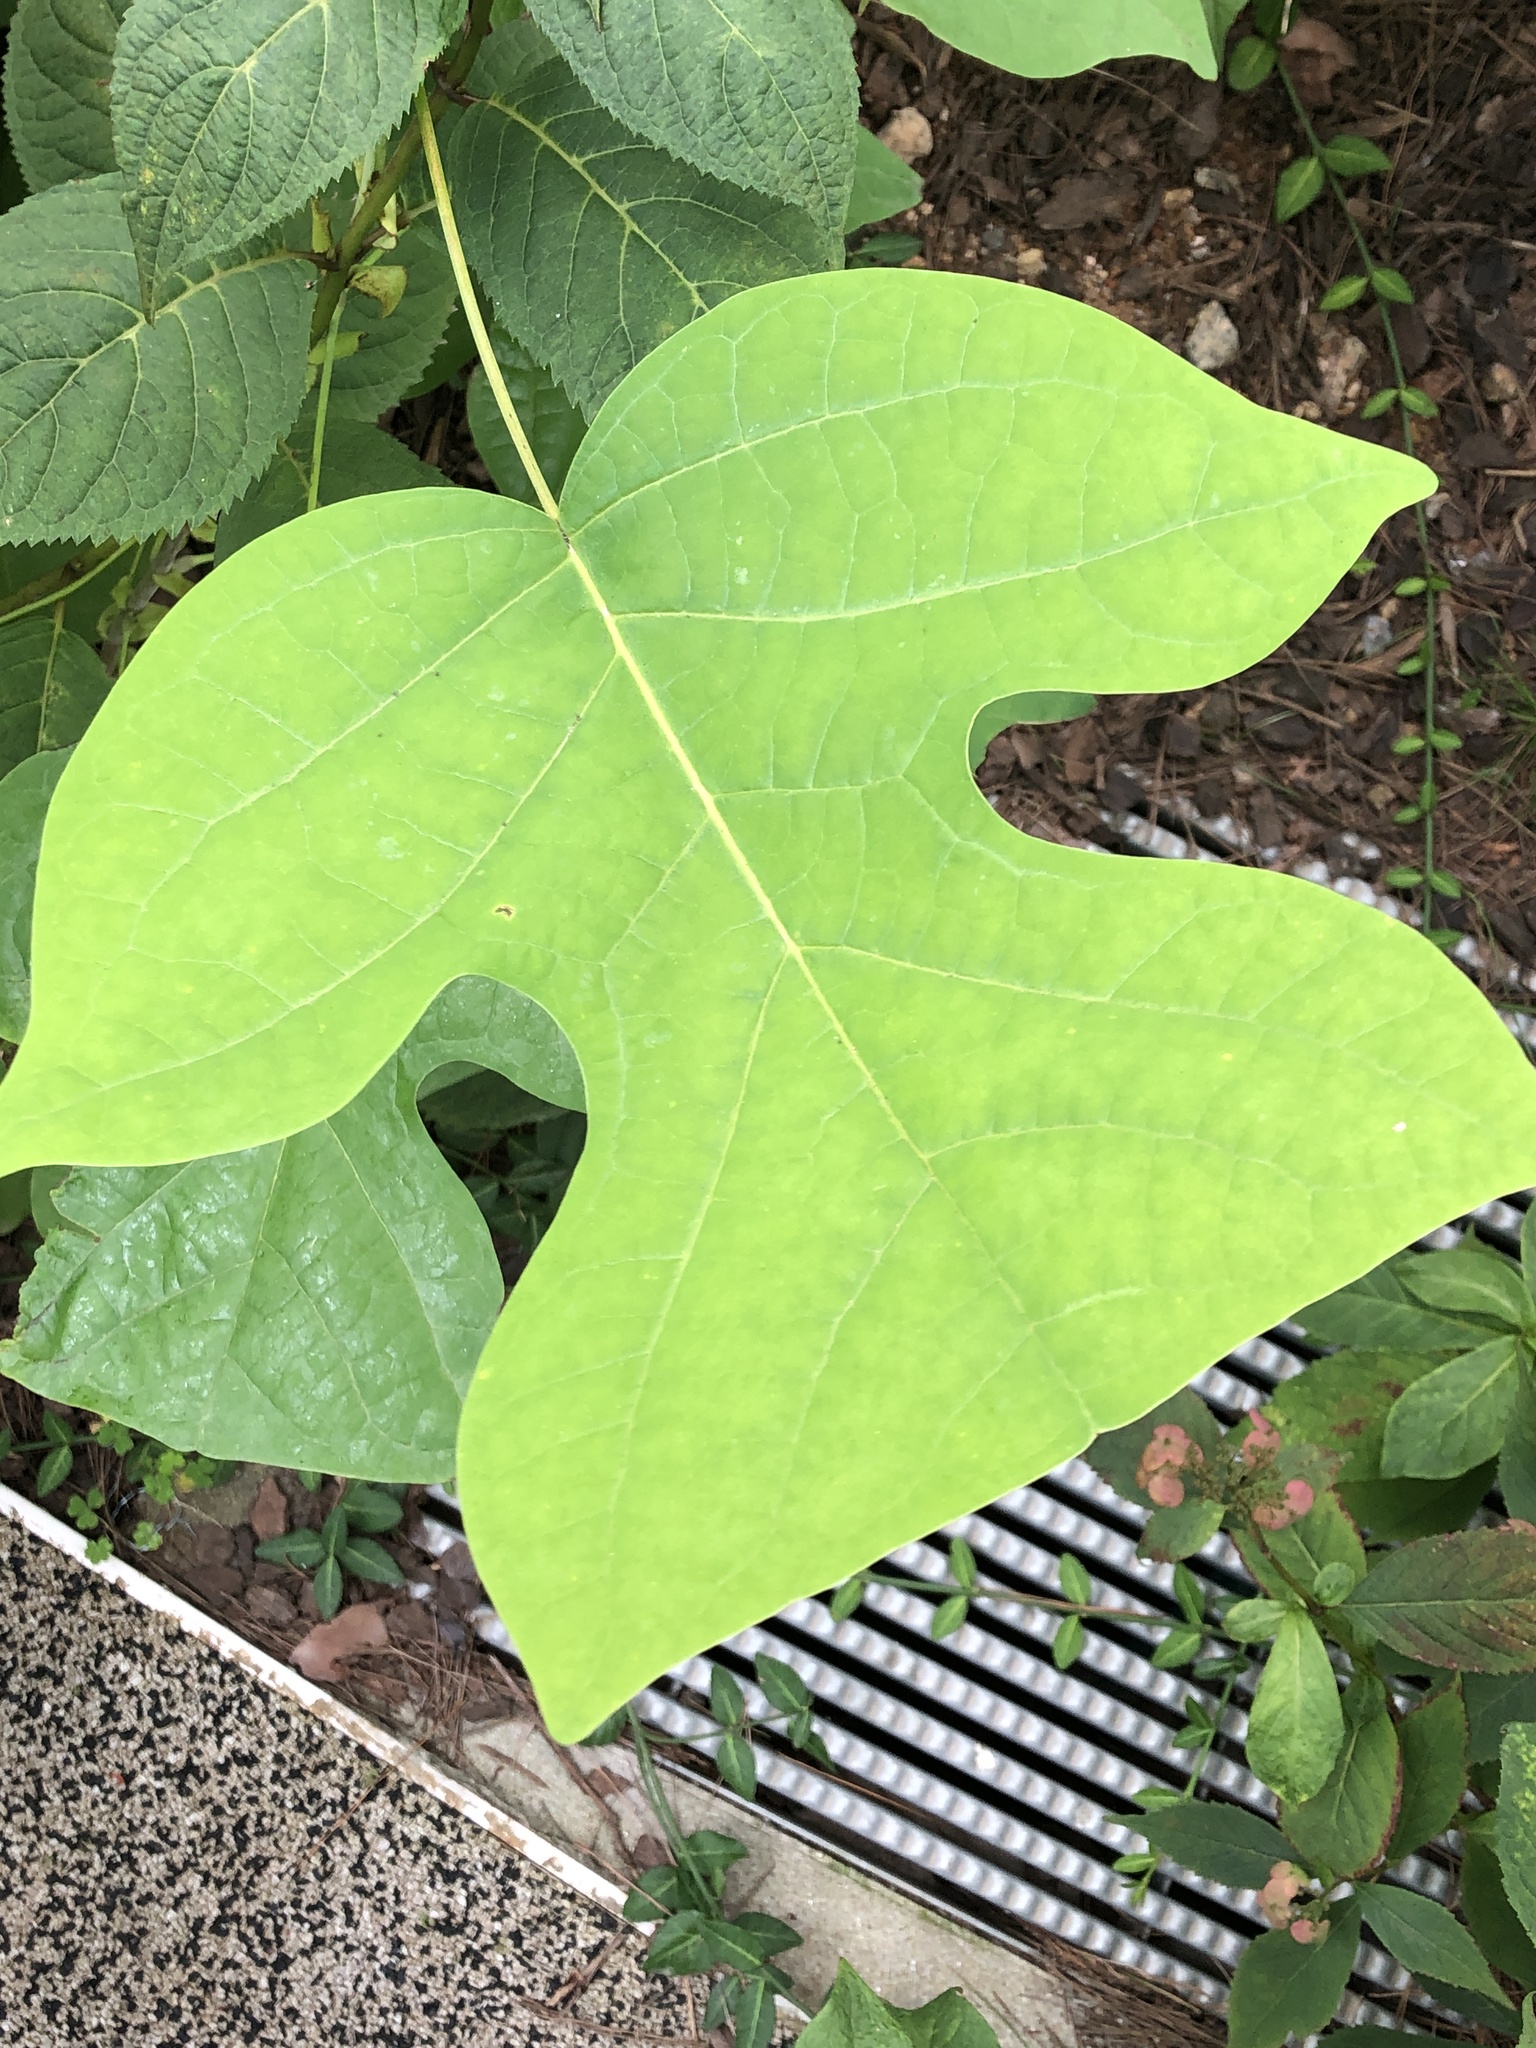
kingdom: Plantae
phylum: Tracheophyta
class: Magnoliopsida
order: Magnoliales
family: Magnoliaceae
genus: Liriodendron
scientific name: Liriodendron chinense
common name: Chinese tuliptree
